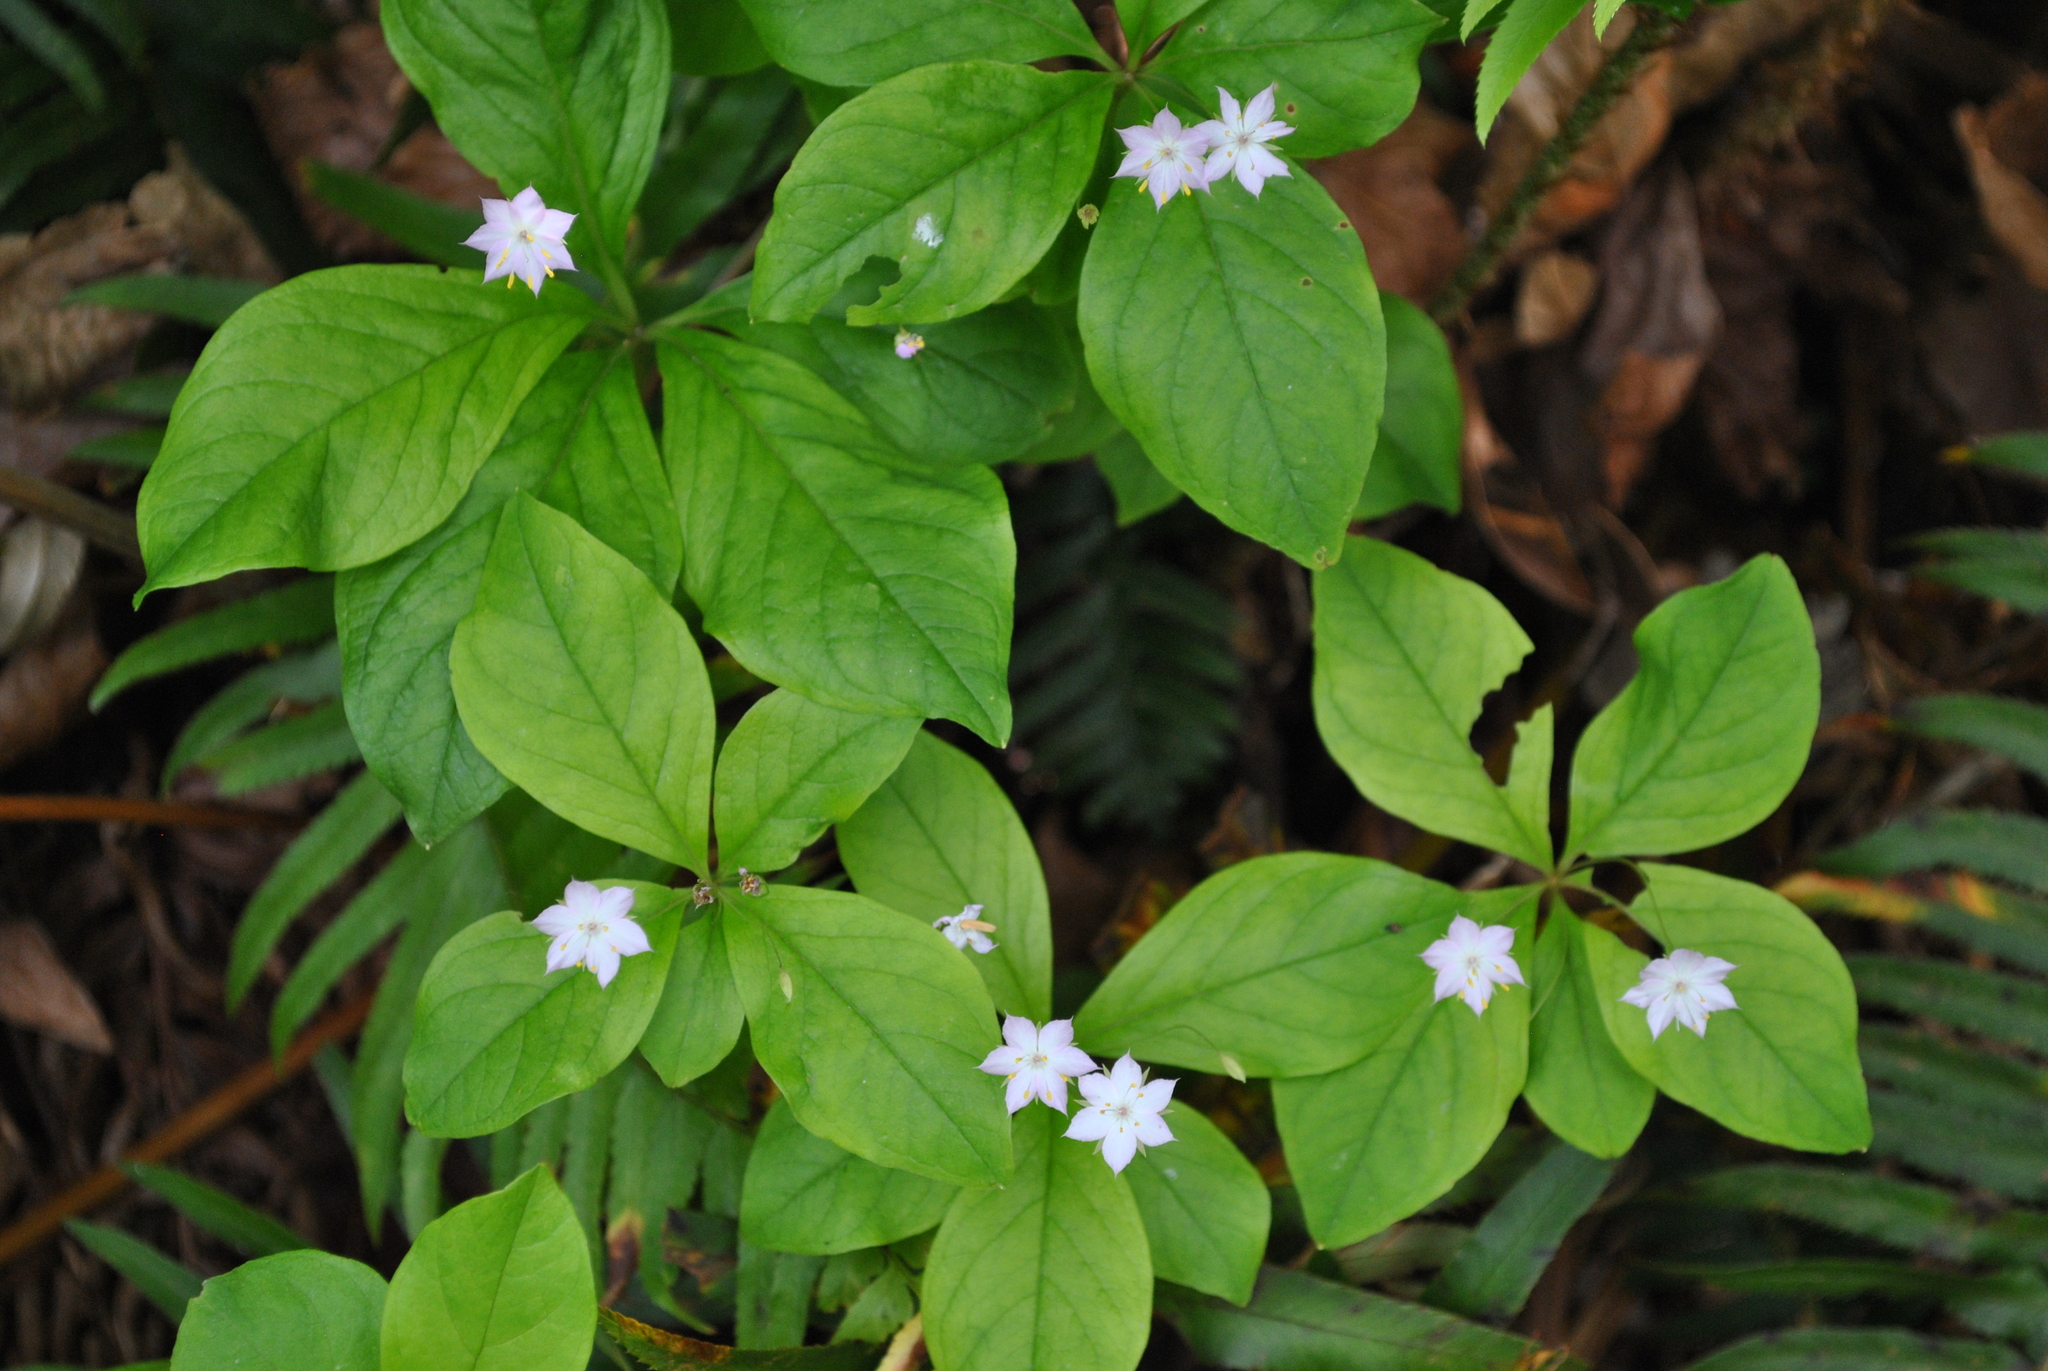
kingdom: Plantae
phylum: Tracheophyta
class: Magnoliopsida
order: Ericales
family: Primulaceae
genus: Lysimachia
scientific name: Lysimachia latifolia
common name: Pacific starflower
